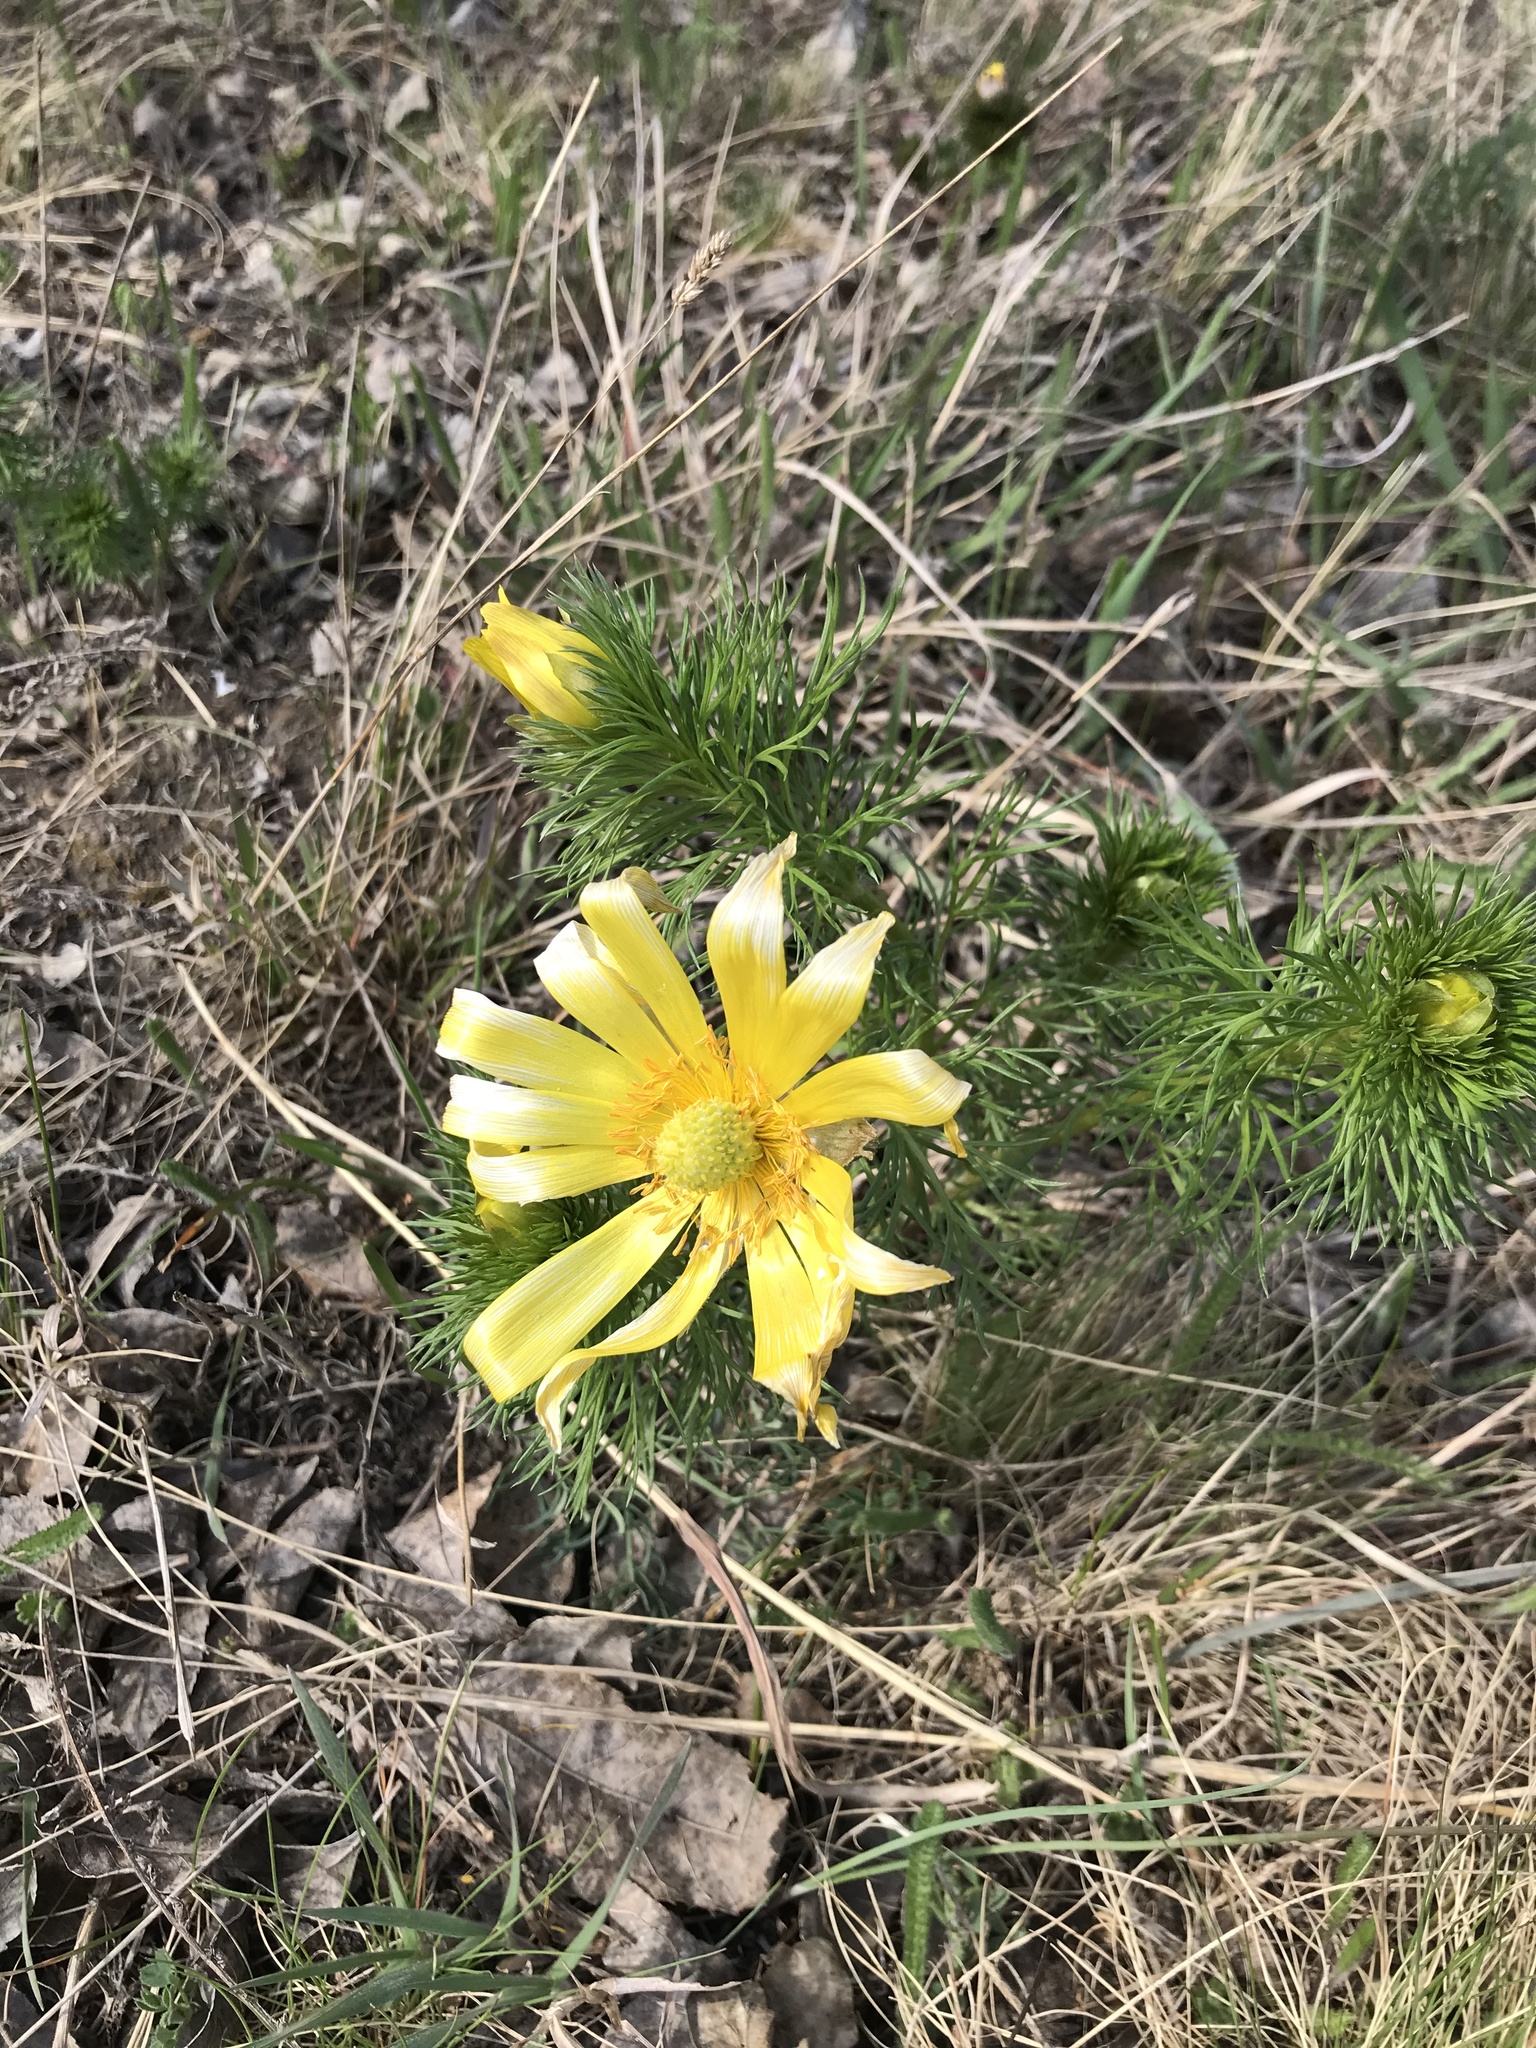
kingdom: Plantae
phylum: Tracheophyta
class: Magnoliopsida
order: Ranunculales
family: Ranunculaceae
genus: Adonis
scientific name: Adonis vernalis
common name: Yellow pheasants-eye
